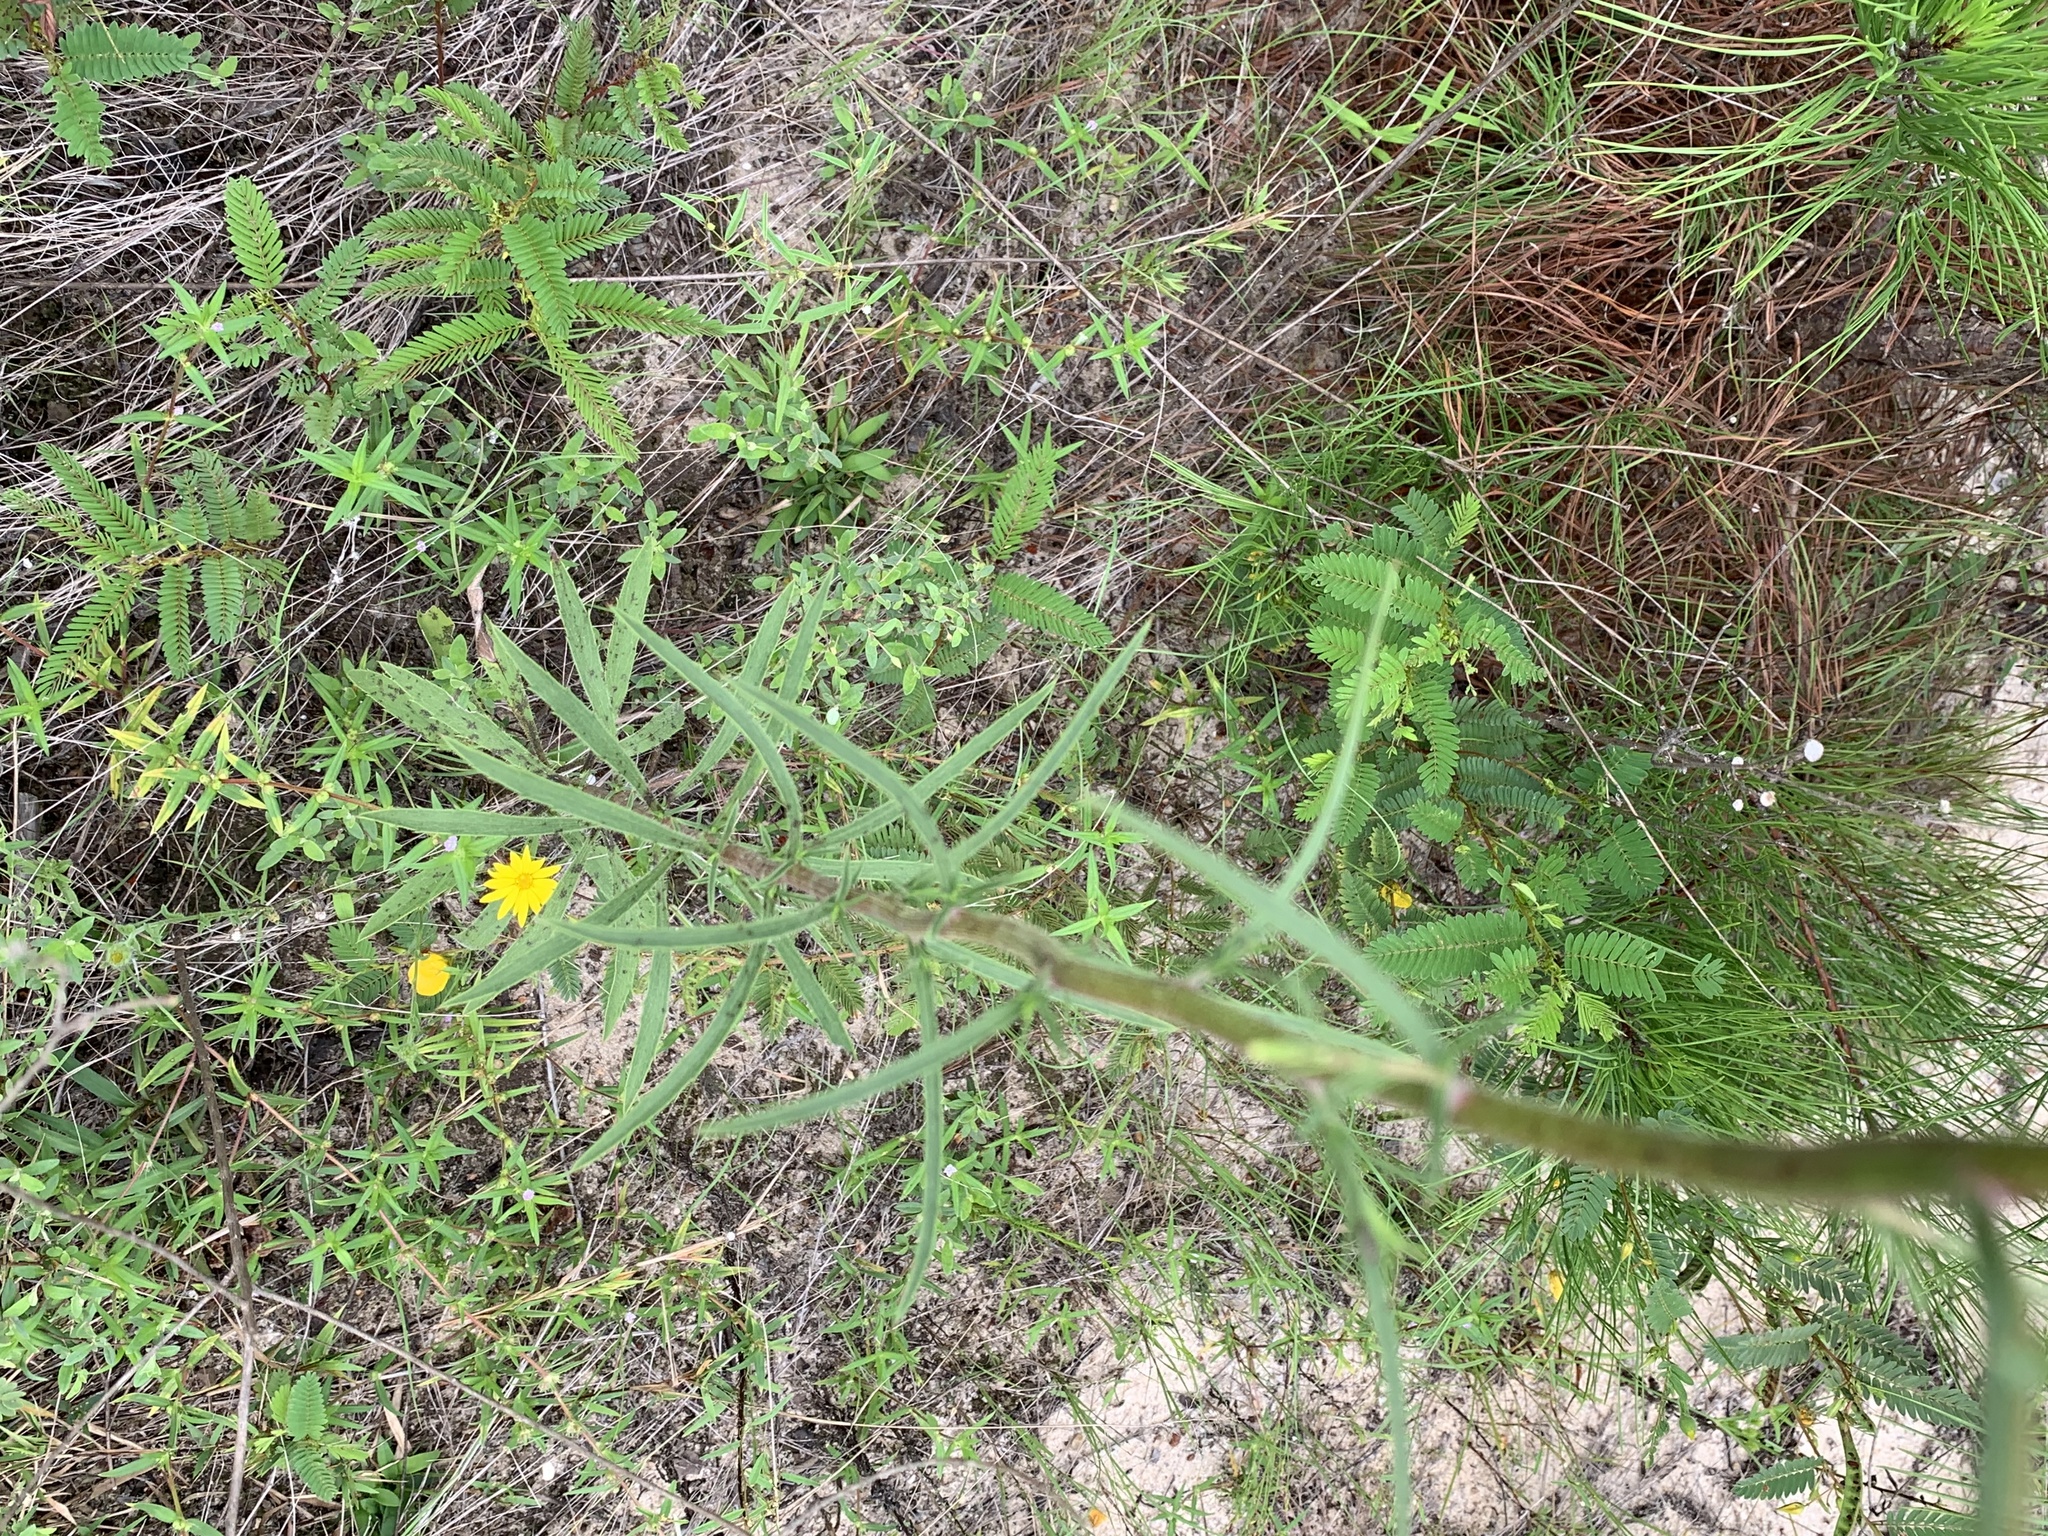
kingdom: Plantae
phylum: Tracheophyta
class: Magnoliopsida
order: Asterales
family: Asteraceae
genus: Croptilon
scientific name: Croptilon divaricatum
